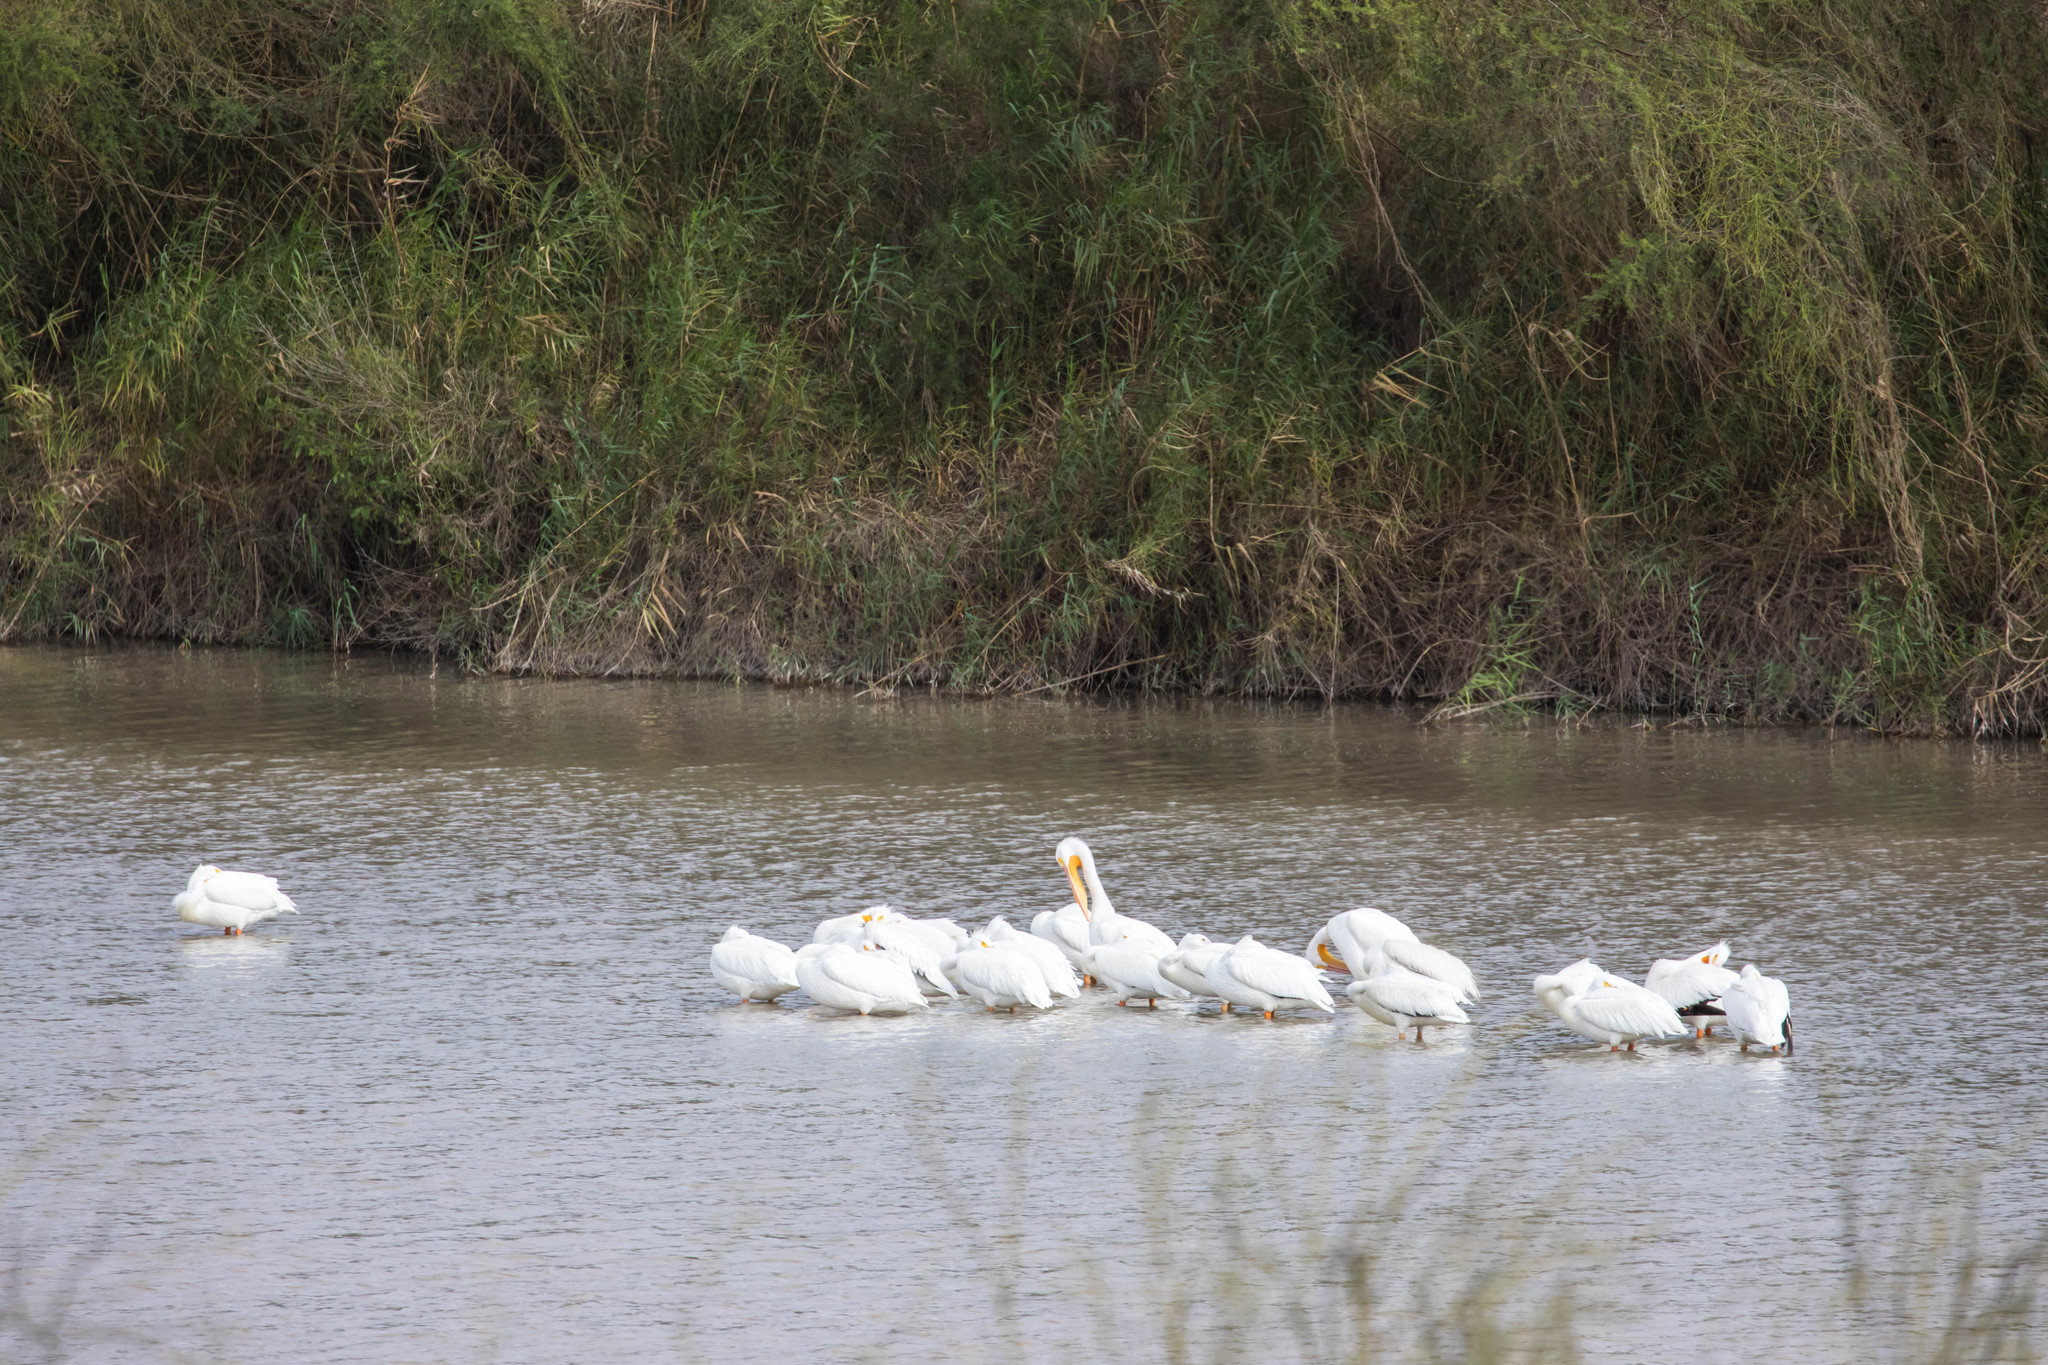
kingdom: Animalia
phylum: Chordata
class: Aves
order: Pelecaniformes
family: Pelecanidae
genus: Pelecanus
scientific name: Pelecanus erythrorhynchos
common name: American white pelican
